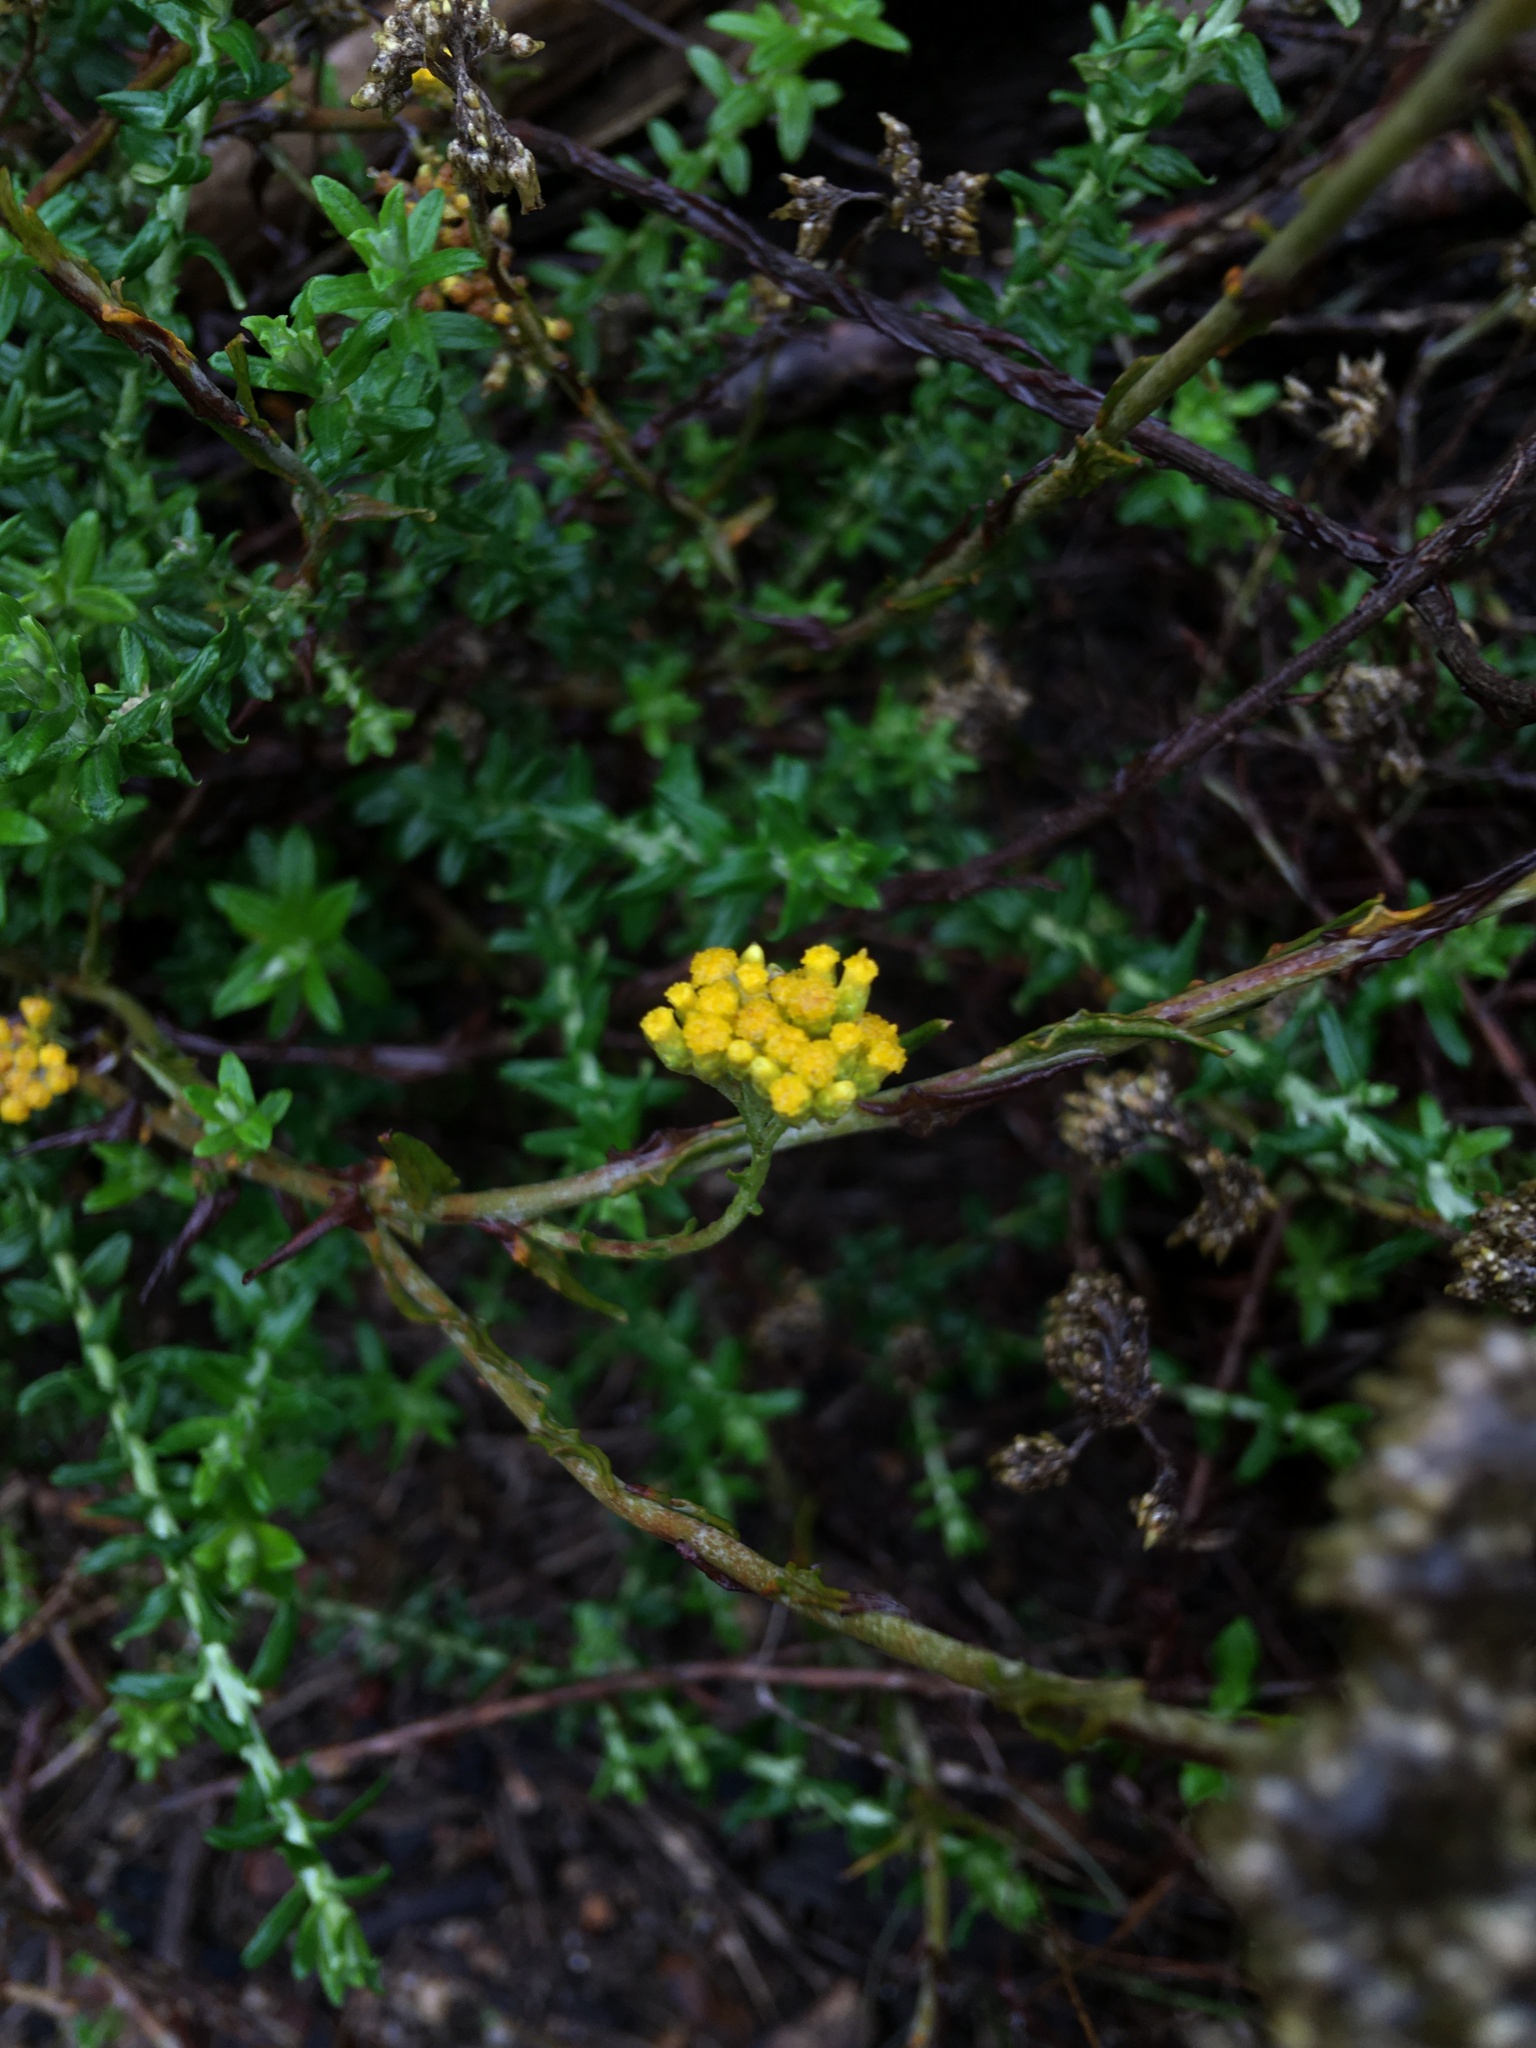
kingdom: Plantae
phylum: Tracheophyta
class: Magnoliopsida
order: Asterales
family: Asteraceae
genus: Helichrysum
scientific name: Helichrysum cymosum
